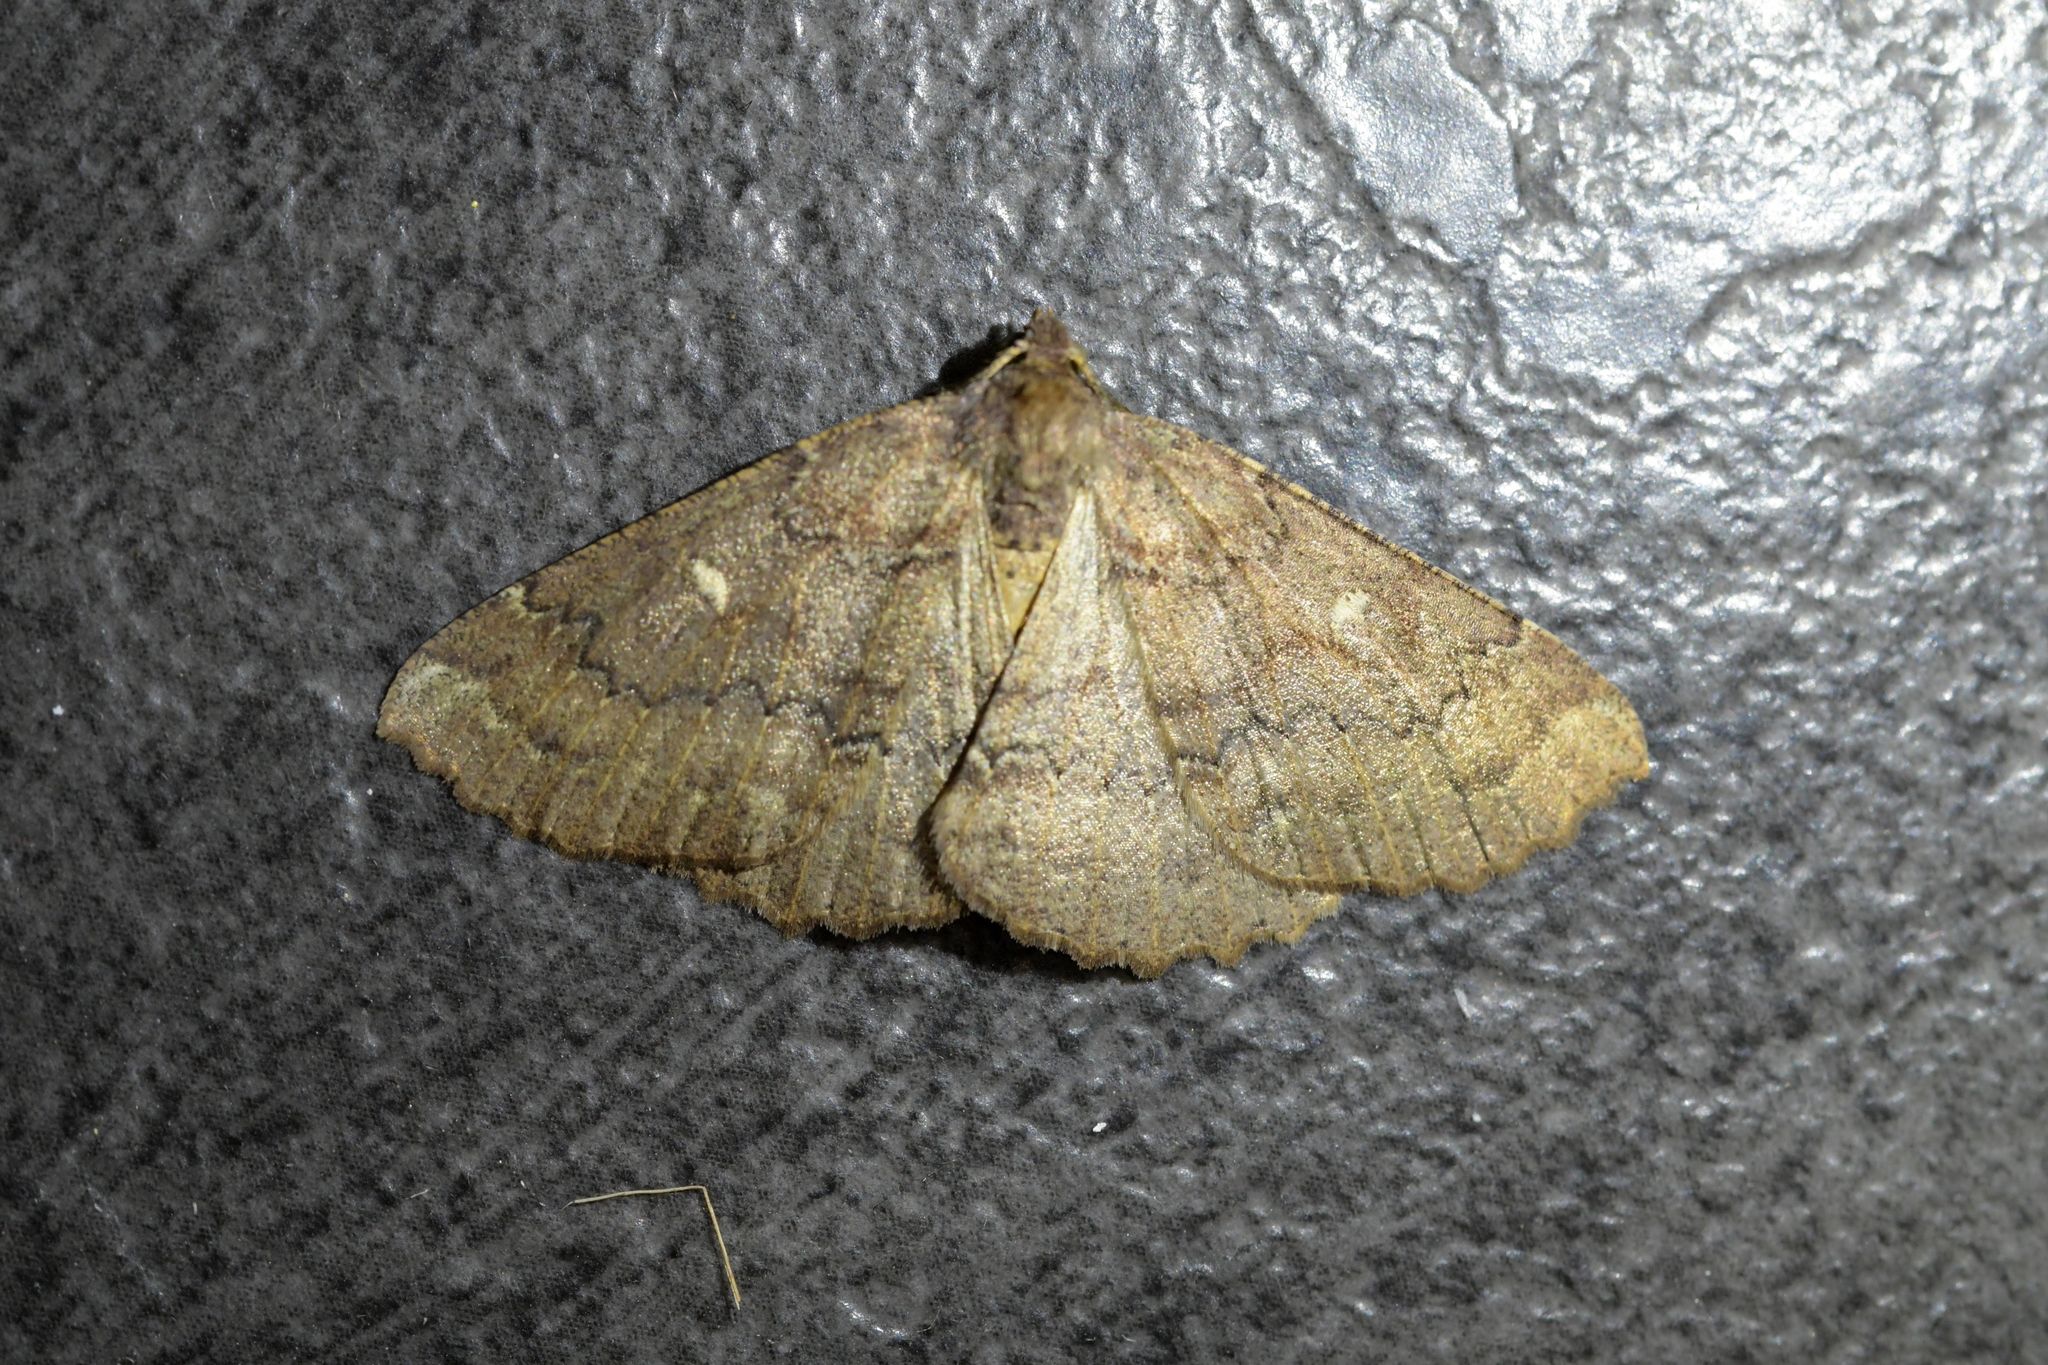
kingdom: Animalia
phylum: Arthropoda
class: Insecta
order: Lepidoptera
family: Geometridae
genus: Cleora
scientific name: Cleora scriptaria
